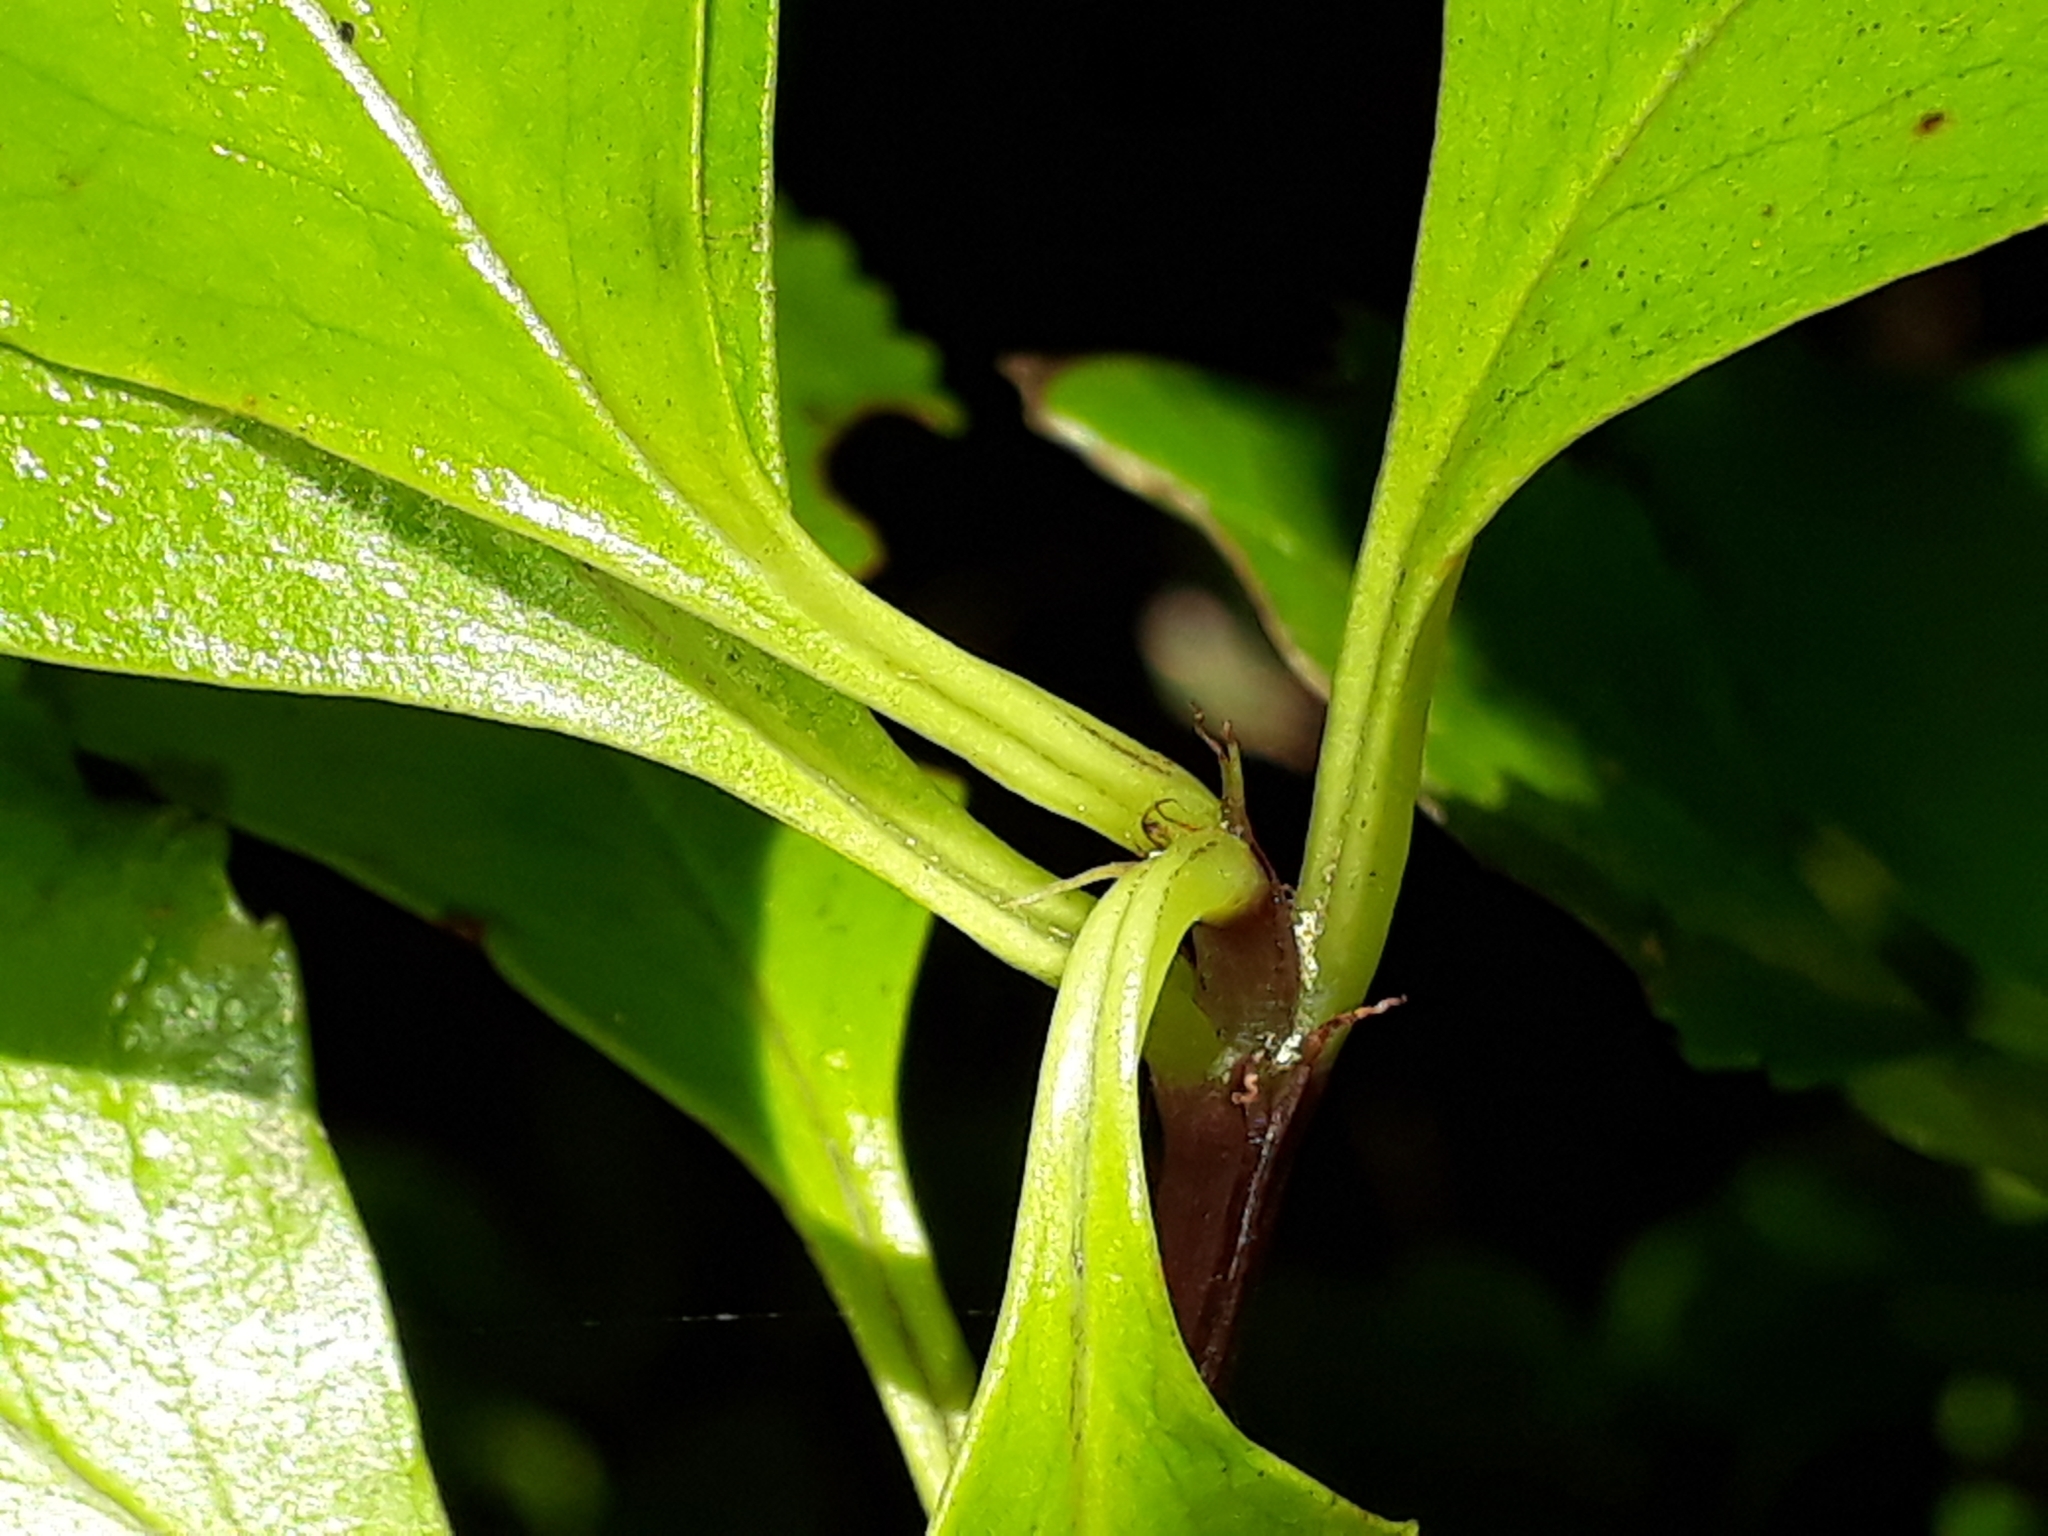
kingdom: Plantae
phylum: Tracheophyta
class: Magnoliopsida
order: Chloranthales
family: Chloranthaceae
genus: Ascarina
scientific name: Ascarina lucida
